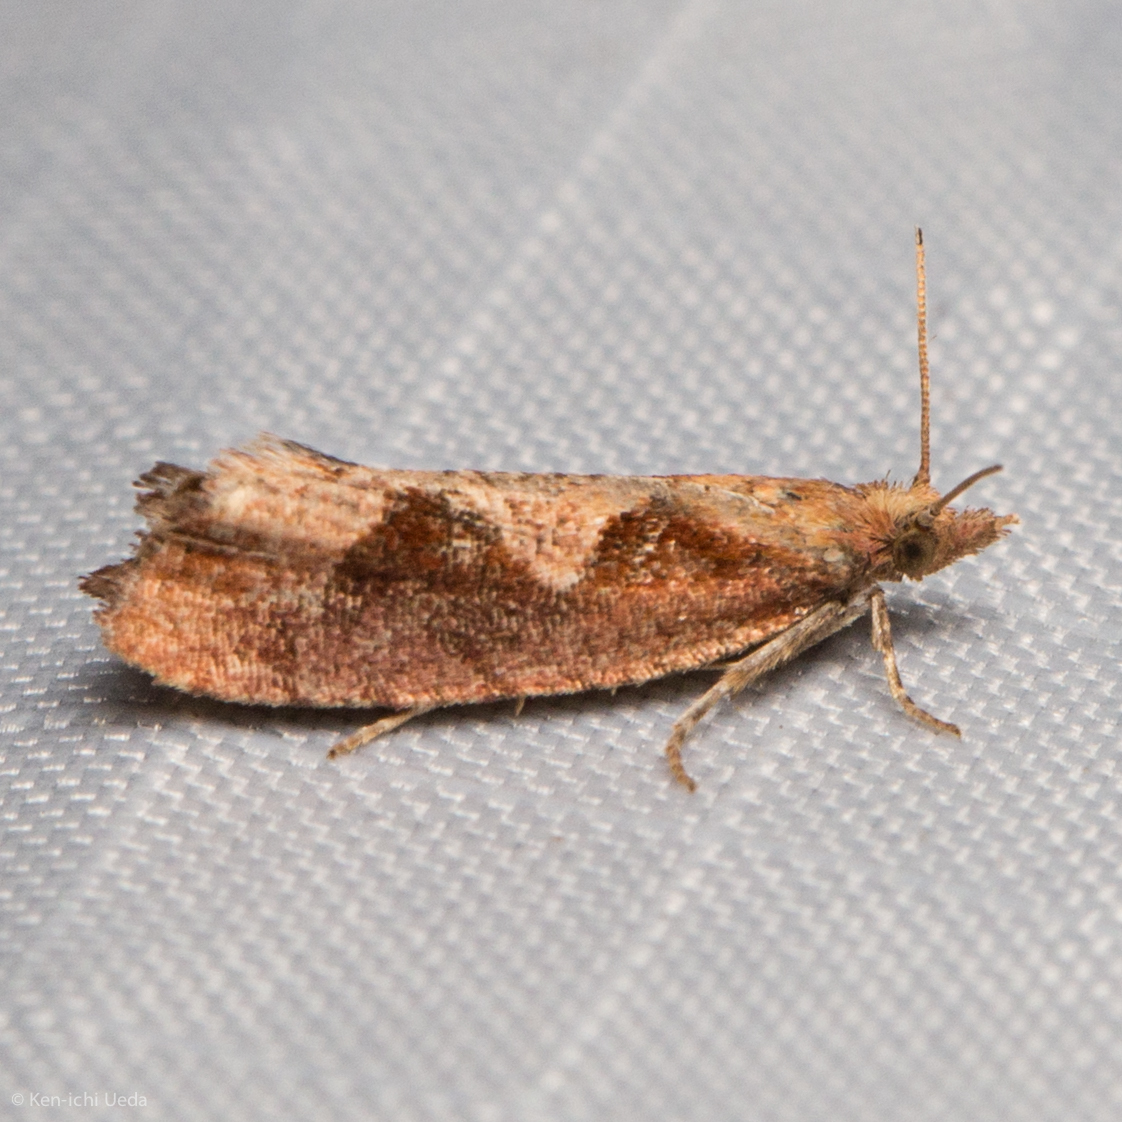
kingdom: Animalia
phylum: Arthropoda
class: Insecta
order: Lepidoptera
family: Tortricidae
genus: Epinotia
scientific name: Epinotia vagana
